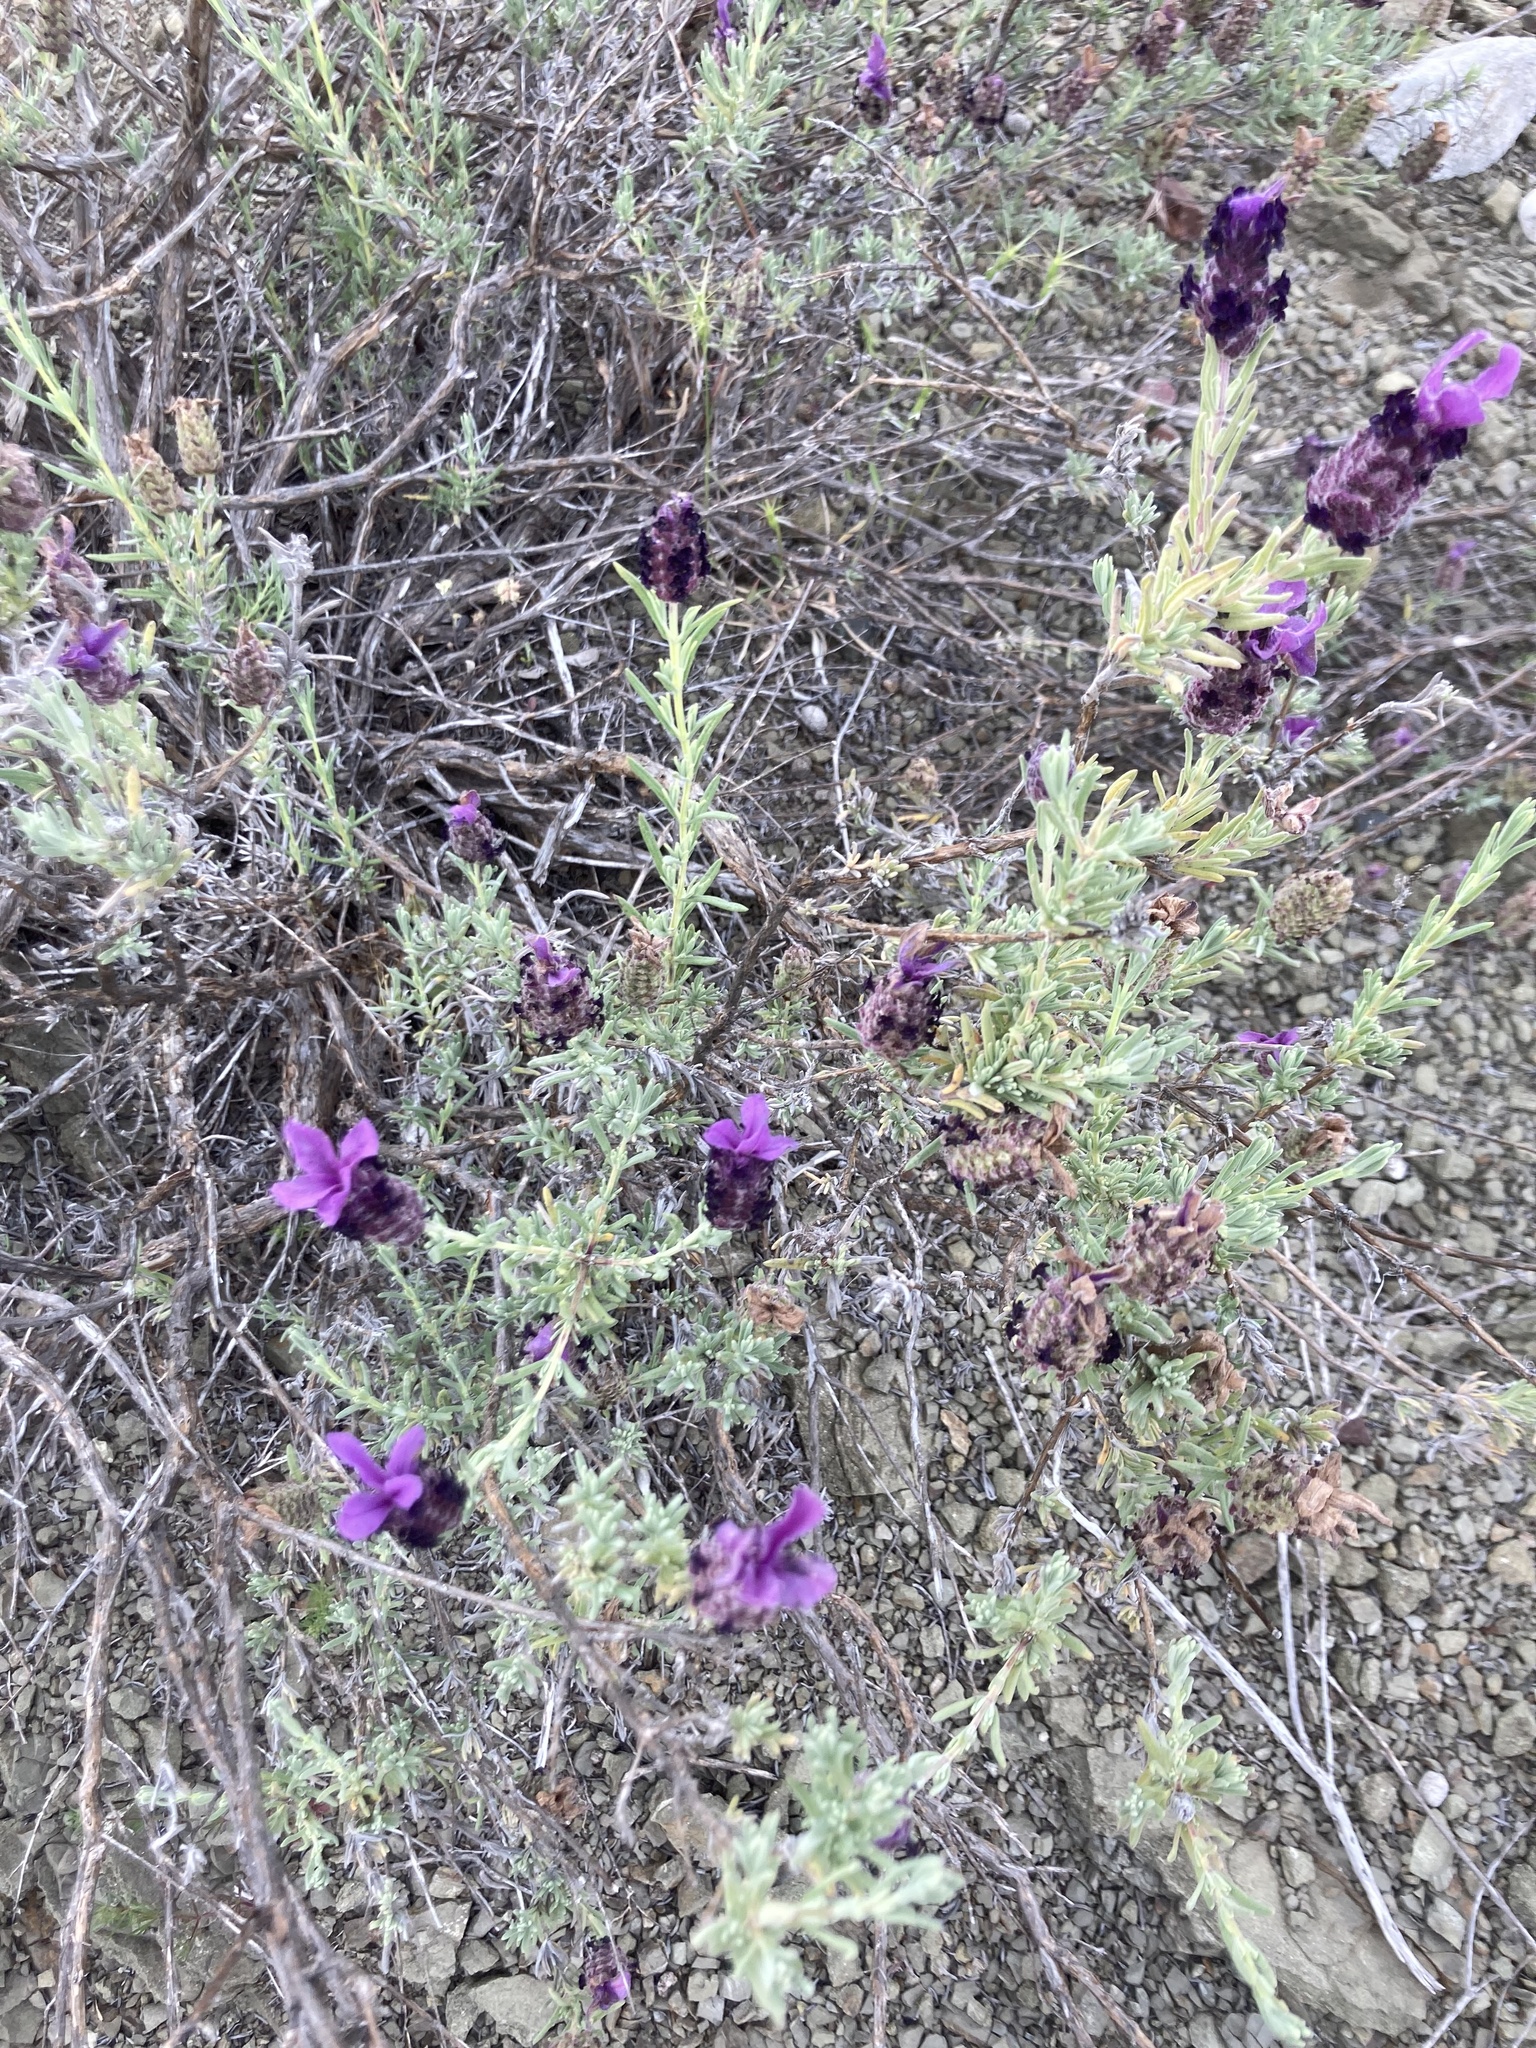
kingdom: Plantae
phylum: Tracheophyta
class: Magnoliopsida
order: Lamiales
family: Lamiaceae
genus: Lavandula
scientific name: Lavandula stoechas
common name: French lavender
